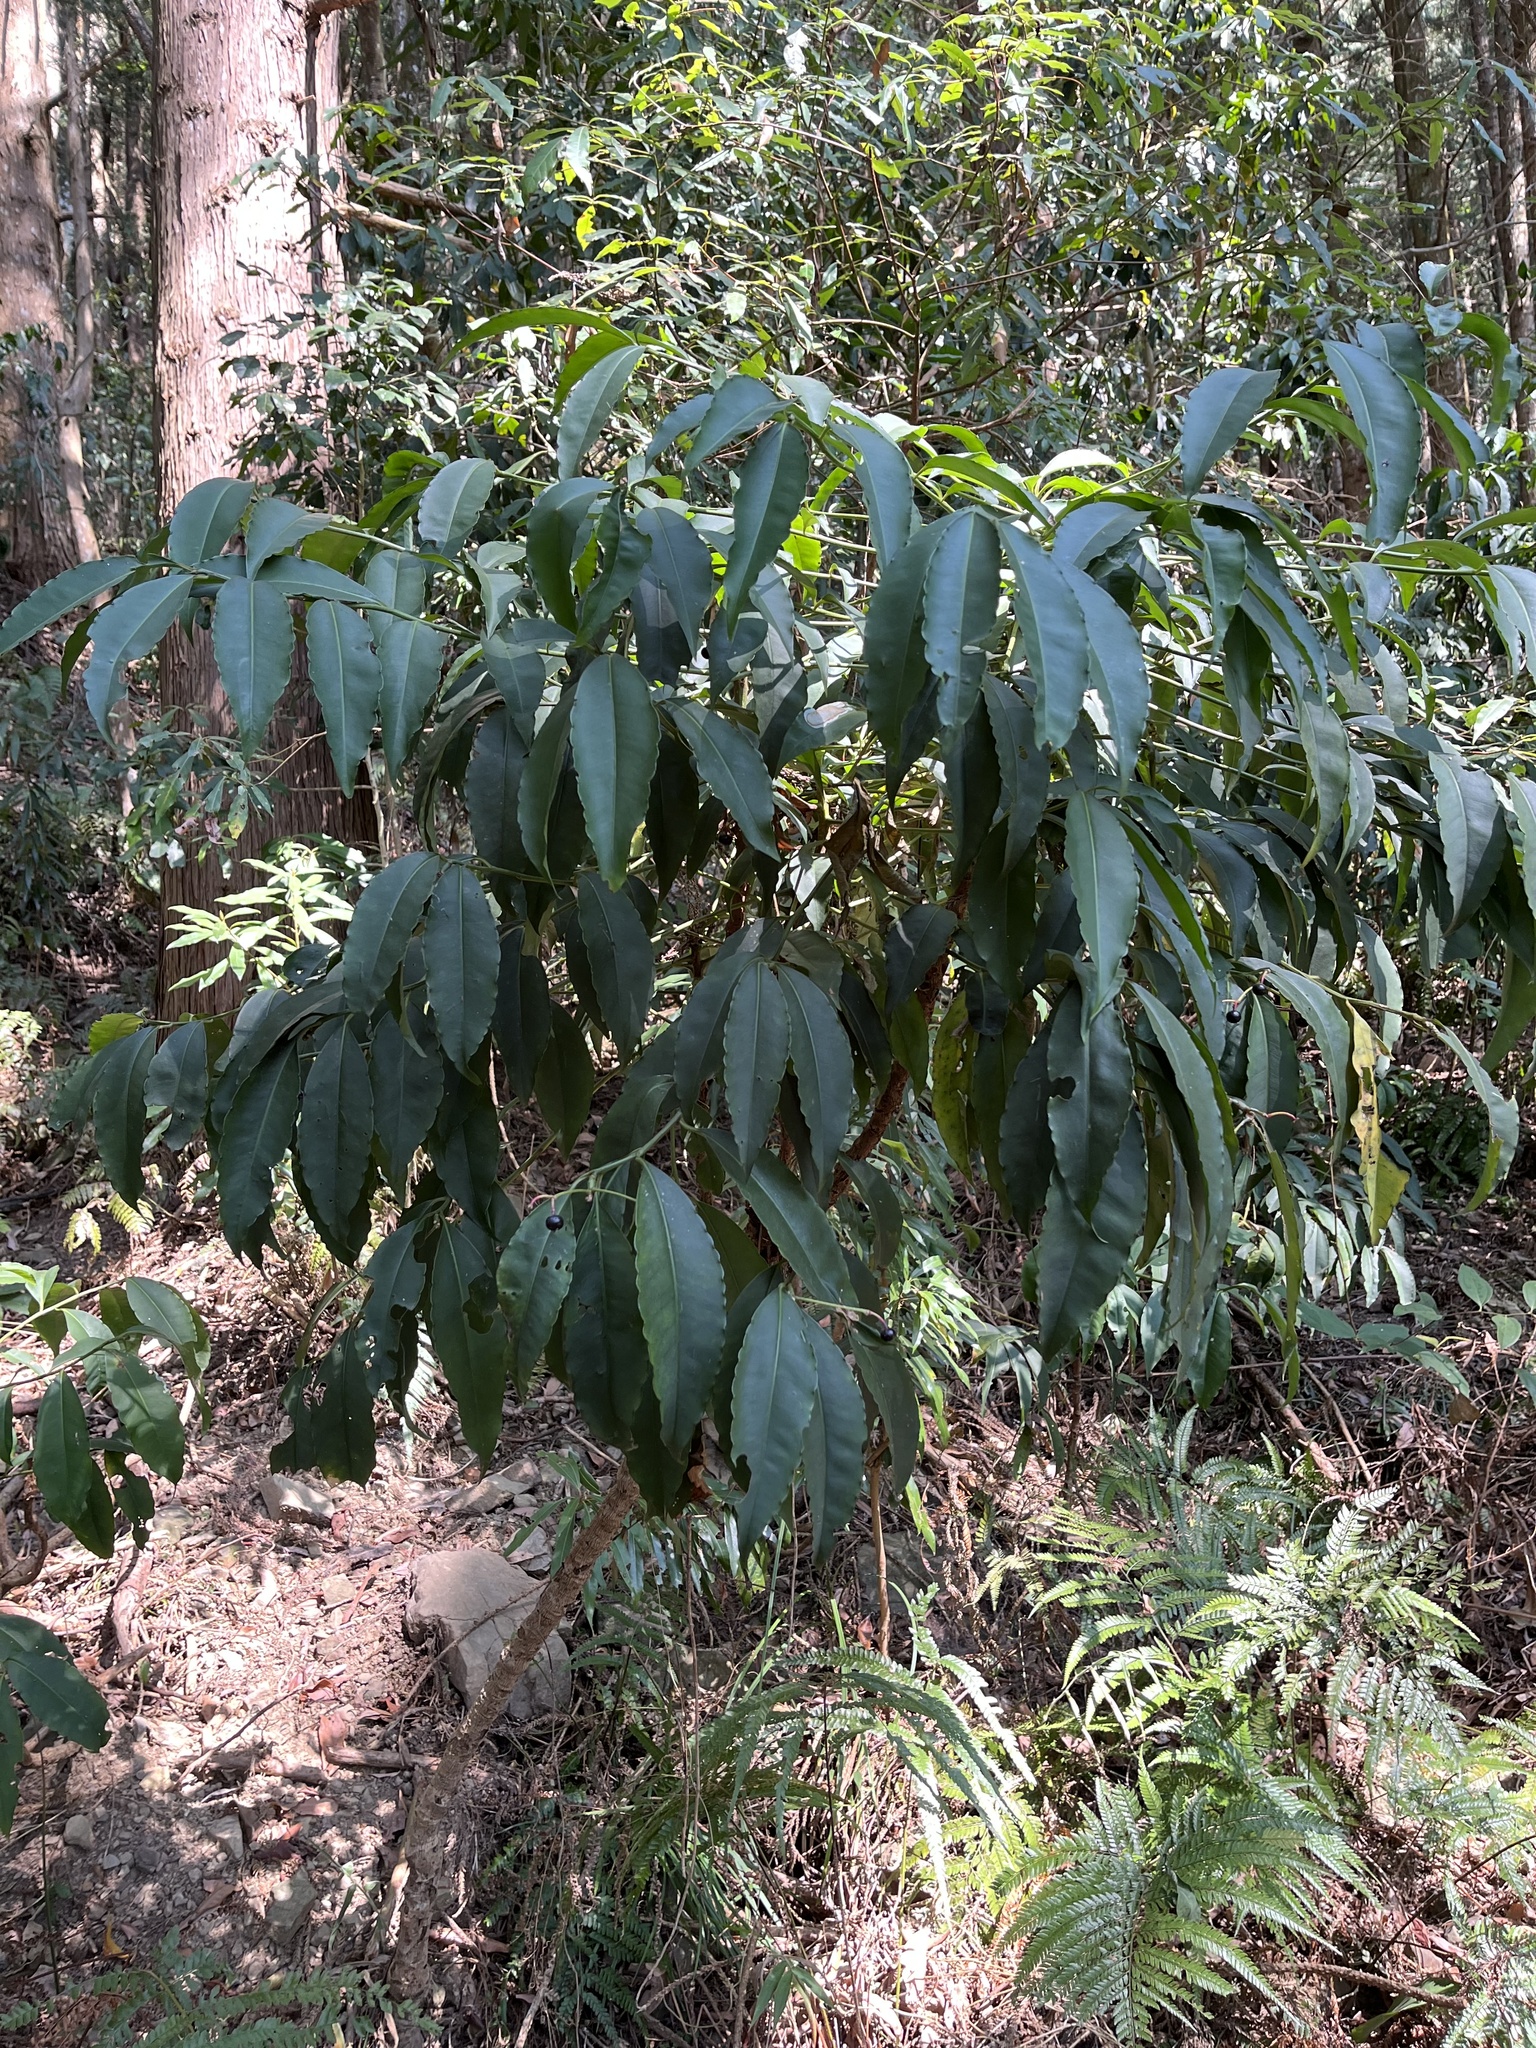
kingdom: Plantae
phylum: Tracheophyta
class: Magnoliopsida
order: Ericales
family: Primulaceae
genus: Ardisia
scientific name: Ardisia polysticta
